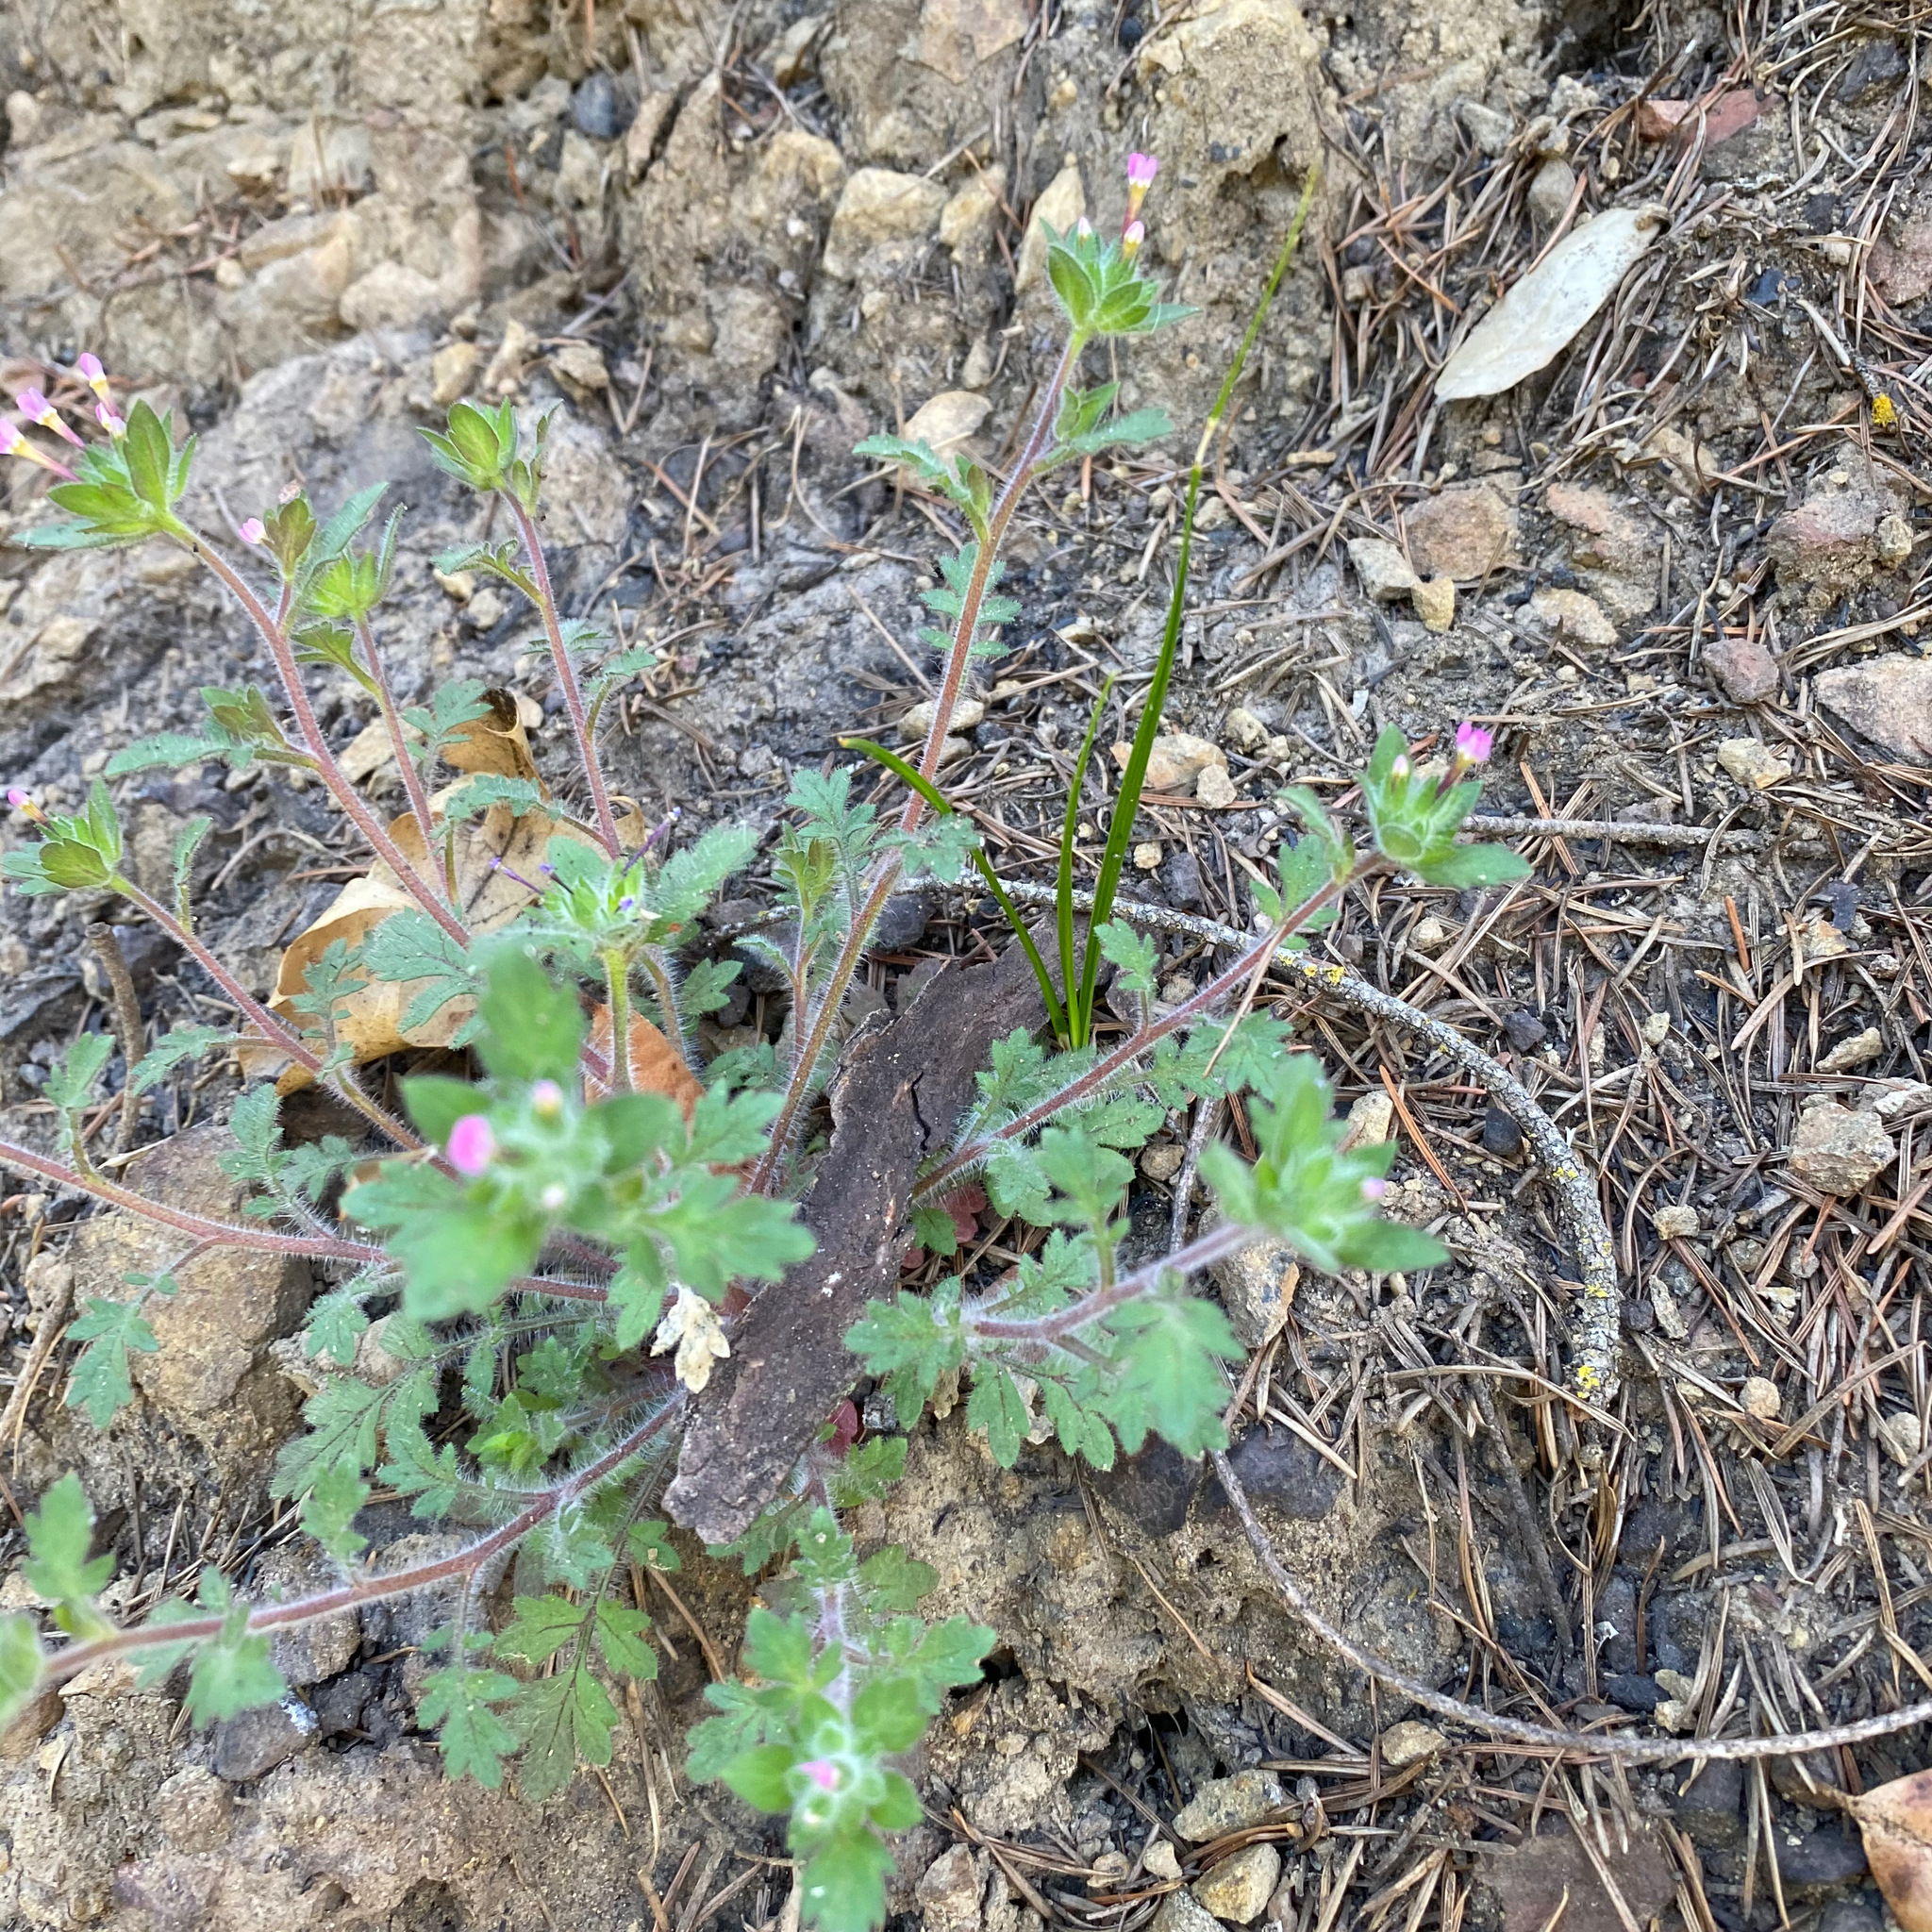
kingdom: Plantae
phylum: Tracheophyta
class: Magnoliopsida
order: Ericales
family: Polemoniaceae
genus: Collomia
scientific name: Collomia heterophylla
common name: Variable-leaved collomia
